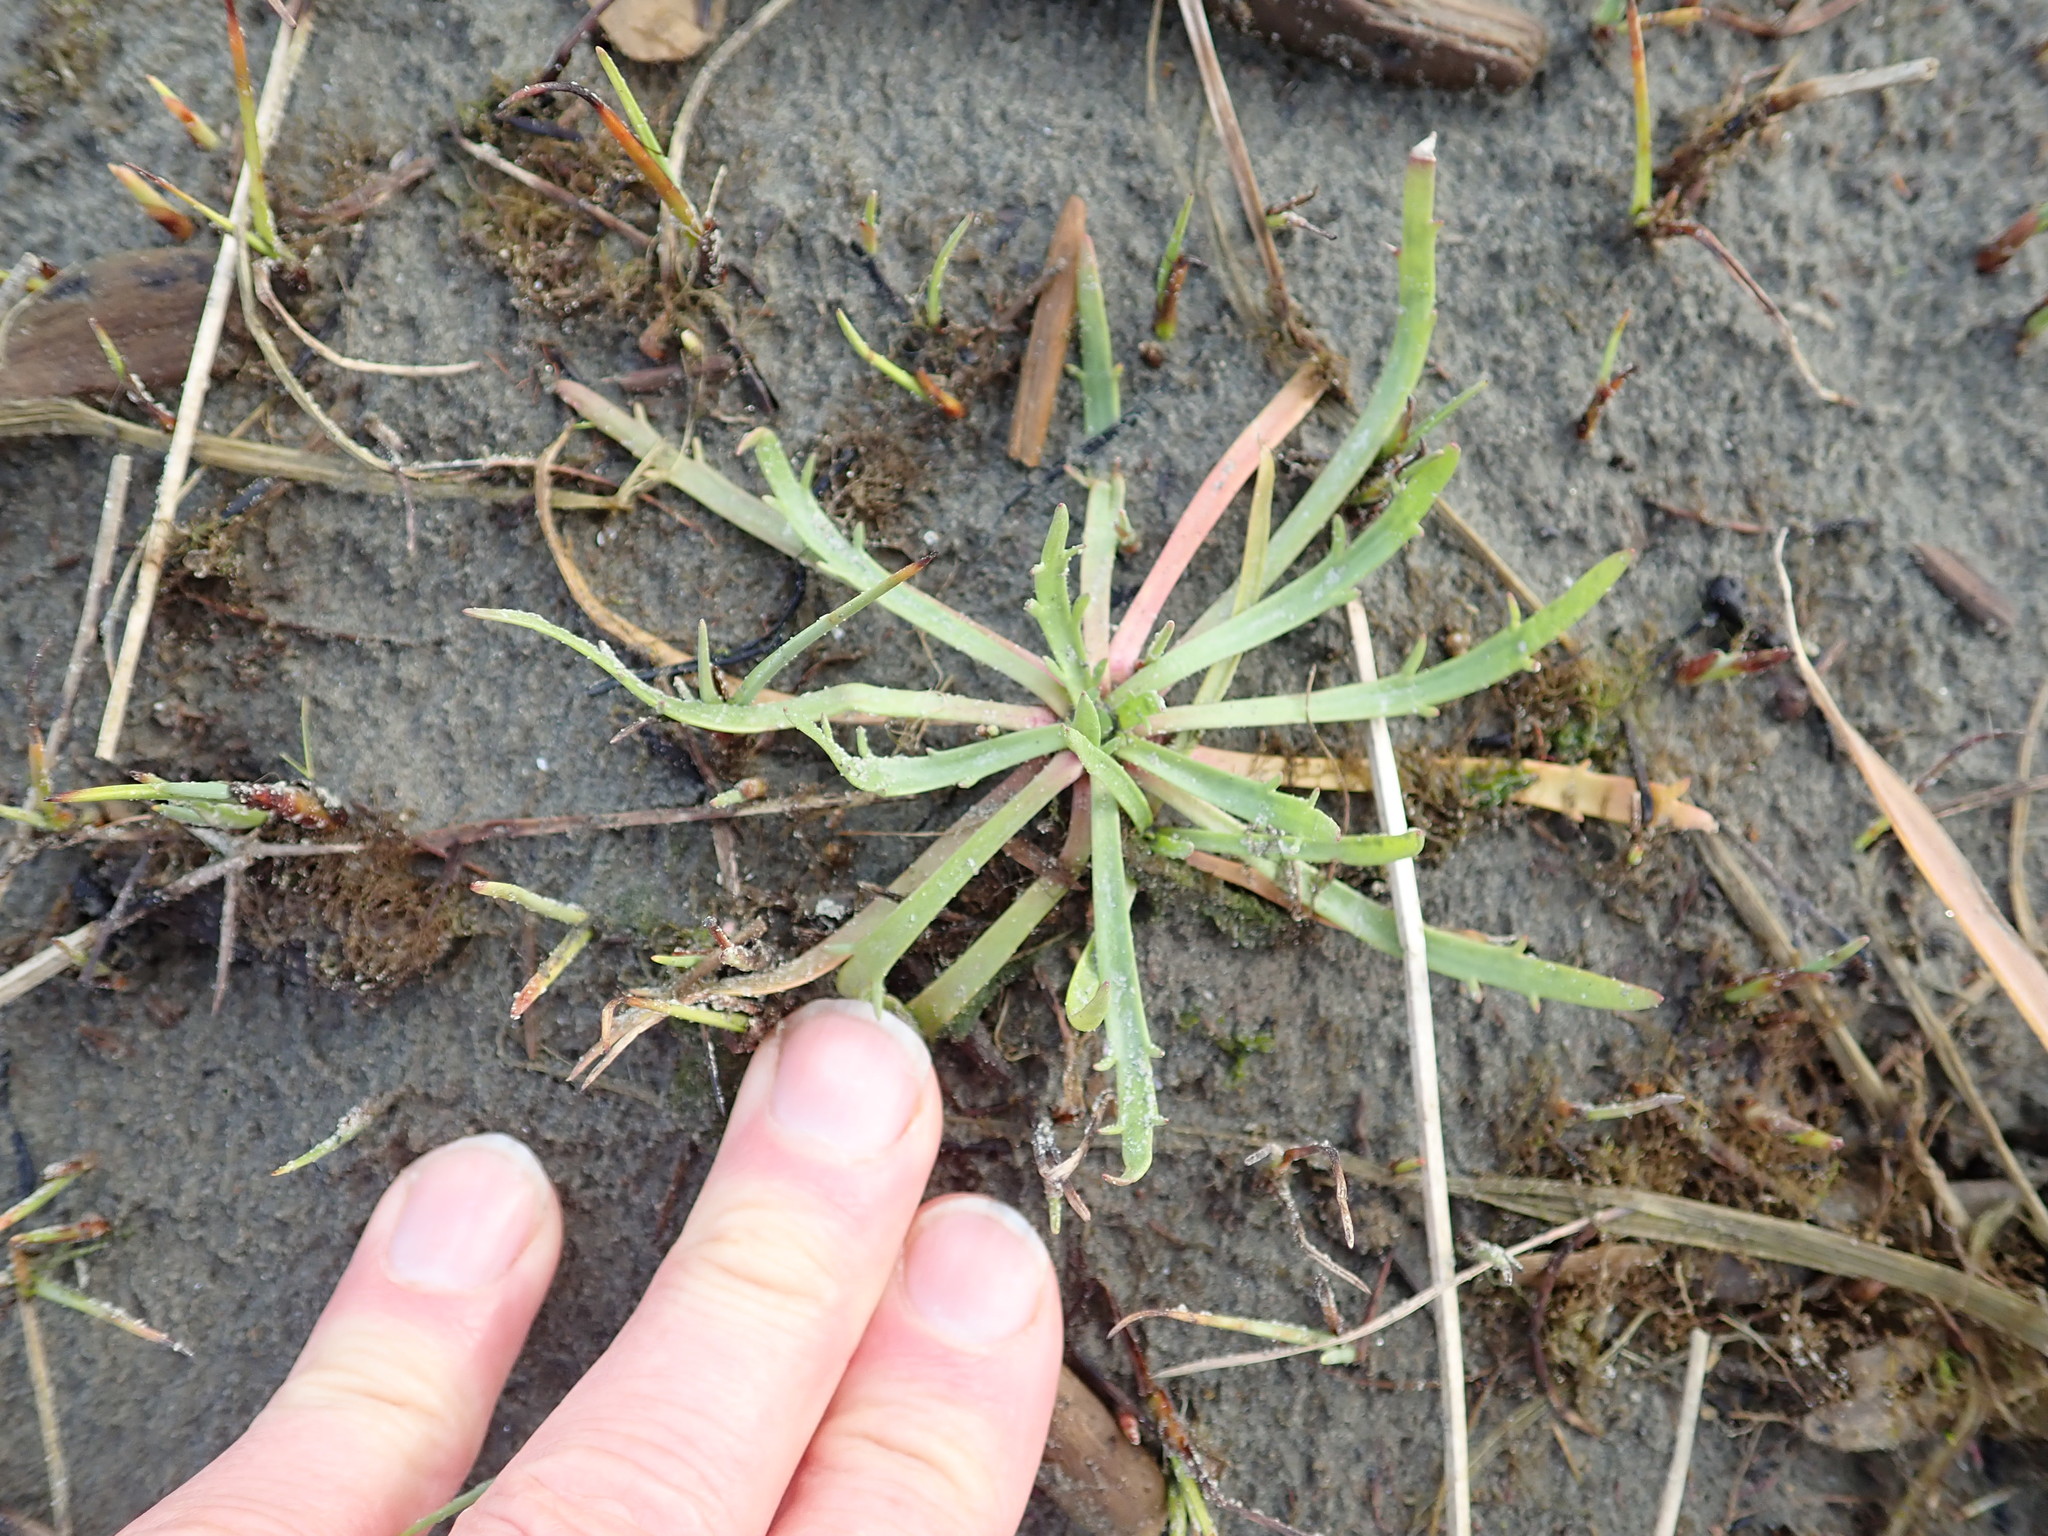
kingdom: Plantae
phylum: Tracheophyta
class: Magnoliopsida
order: Lamiales
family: Plantaginaceae
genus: Plantago
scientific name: Plantago coronopus
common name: Buck's-horn plantain
